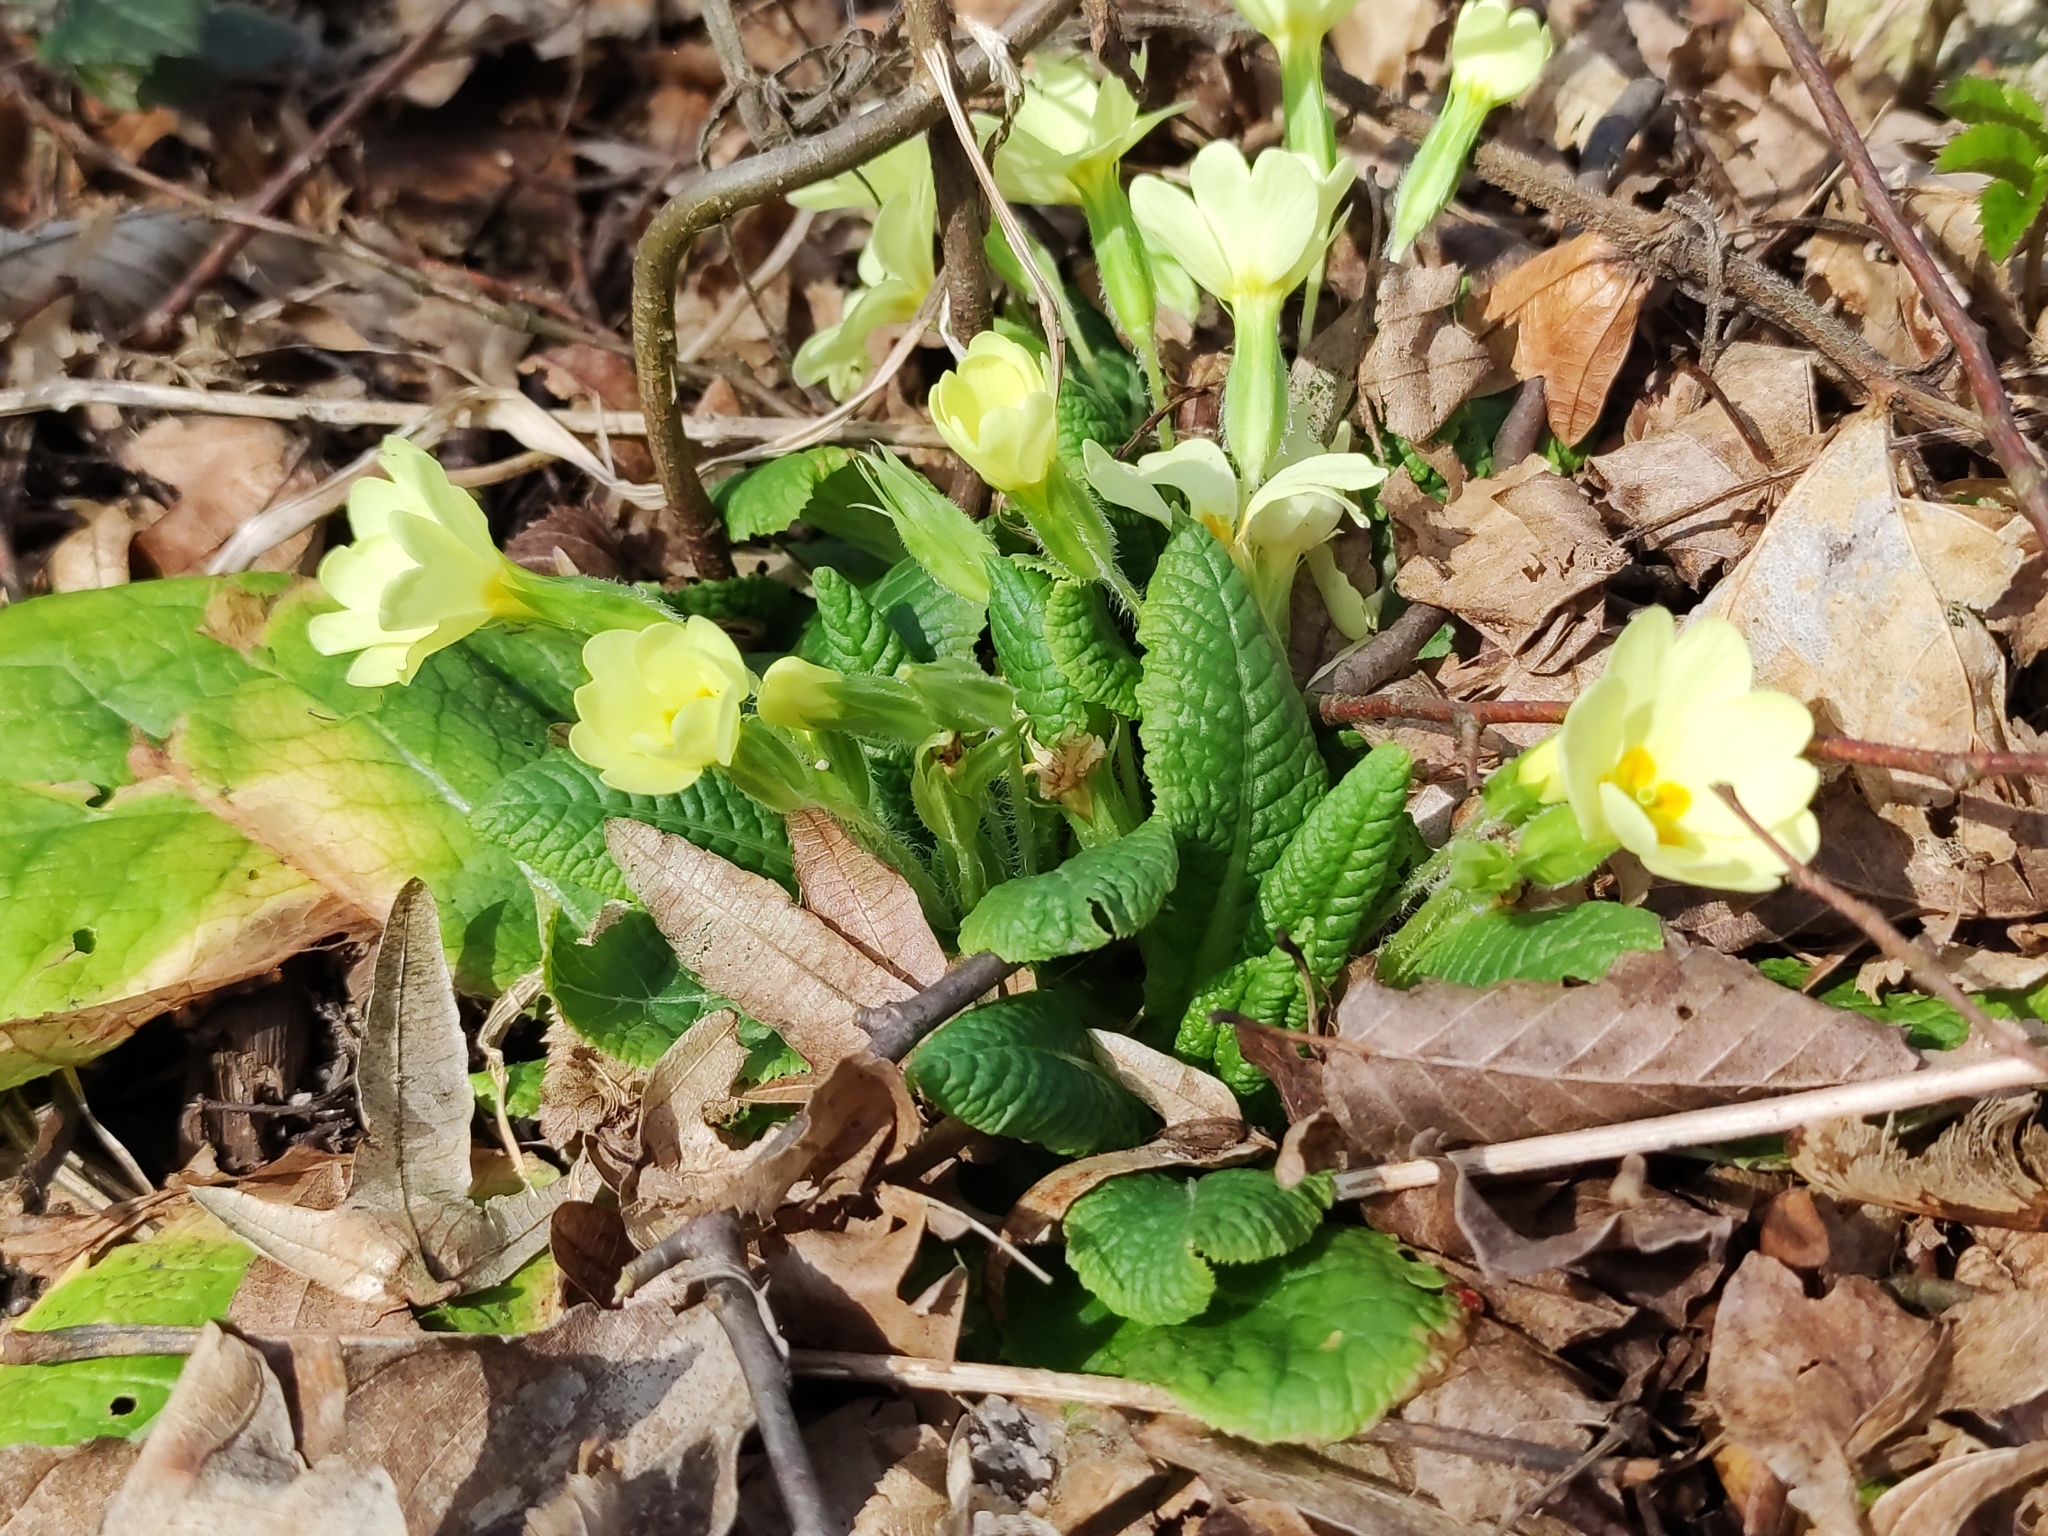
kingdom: Plantae
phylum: Tracheophyta
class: Magnoliopsida
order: Ericales
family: Primulaceae
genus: Primula
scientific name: Primula vulgaris
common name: Primrose
